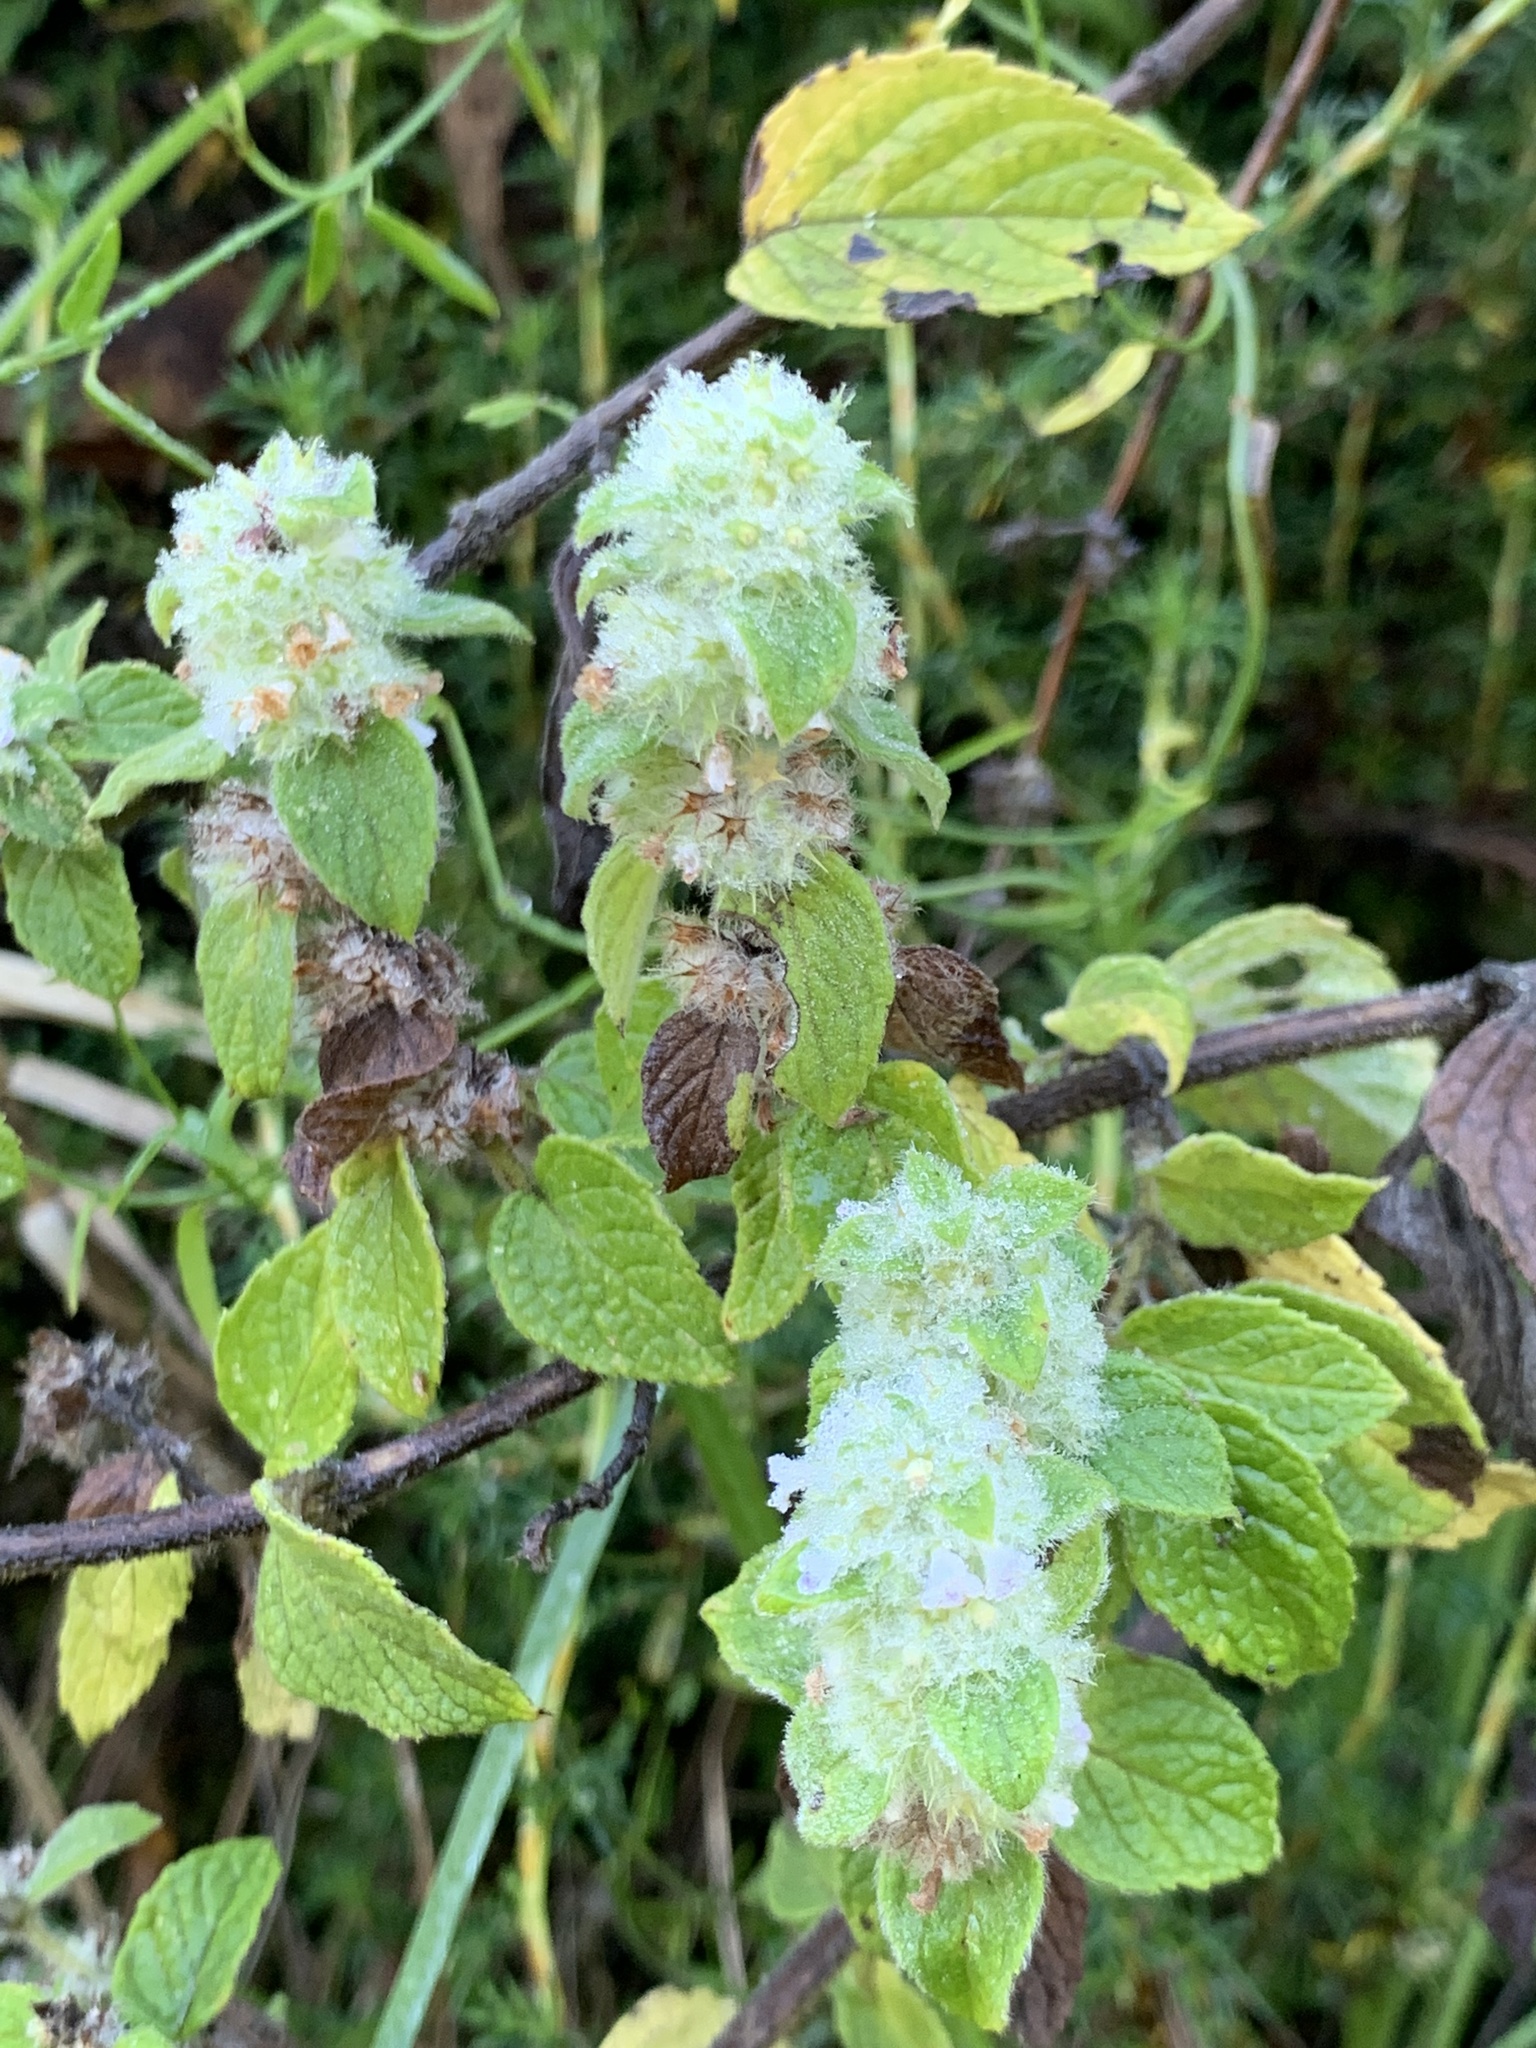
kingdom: Plantae
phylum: Tracheophyta
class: Magnoliopsida
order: Lamiales
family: Lamiaceae
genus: Minthostachys
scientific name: Minthostachys mollis
